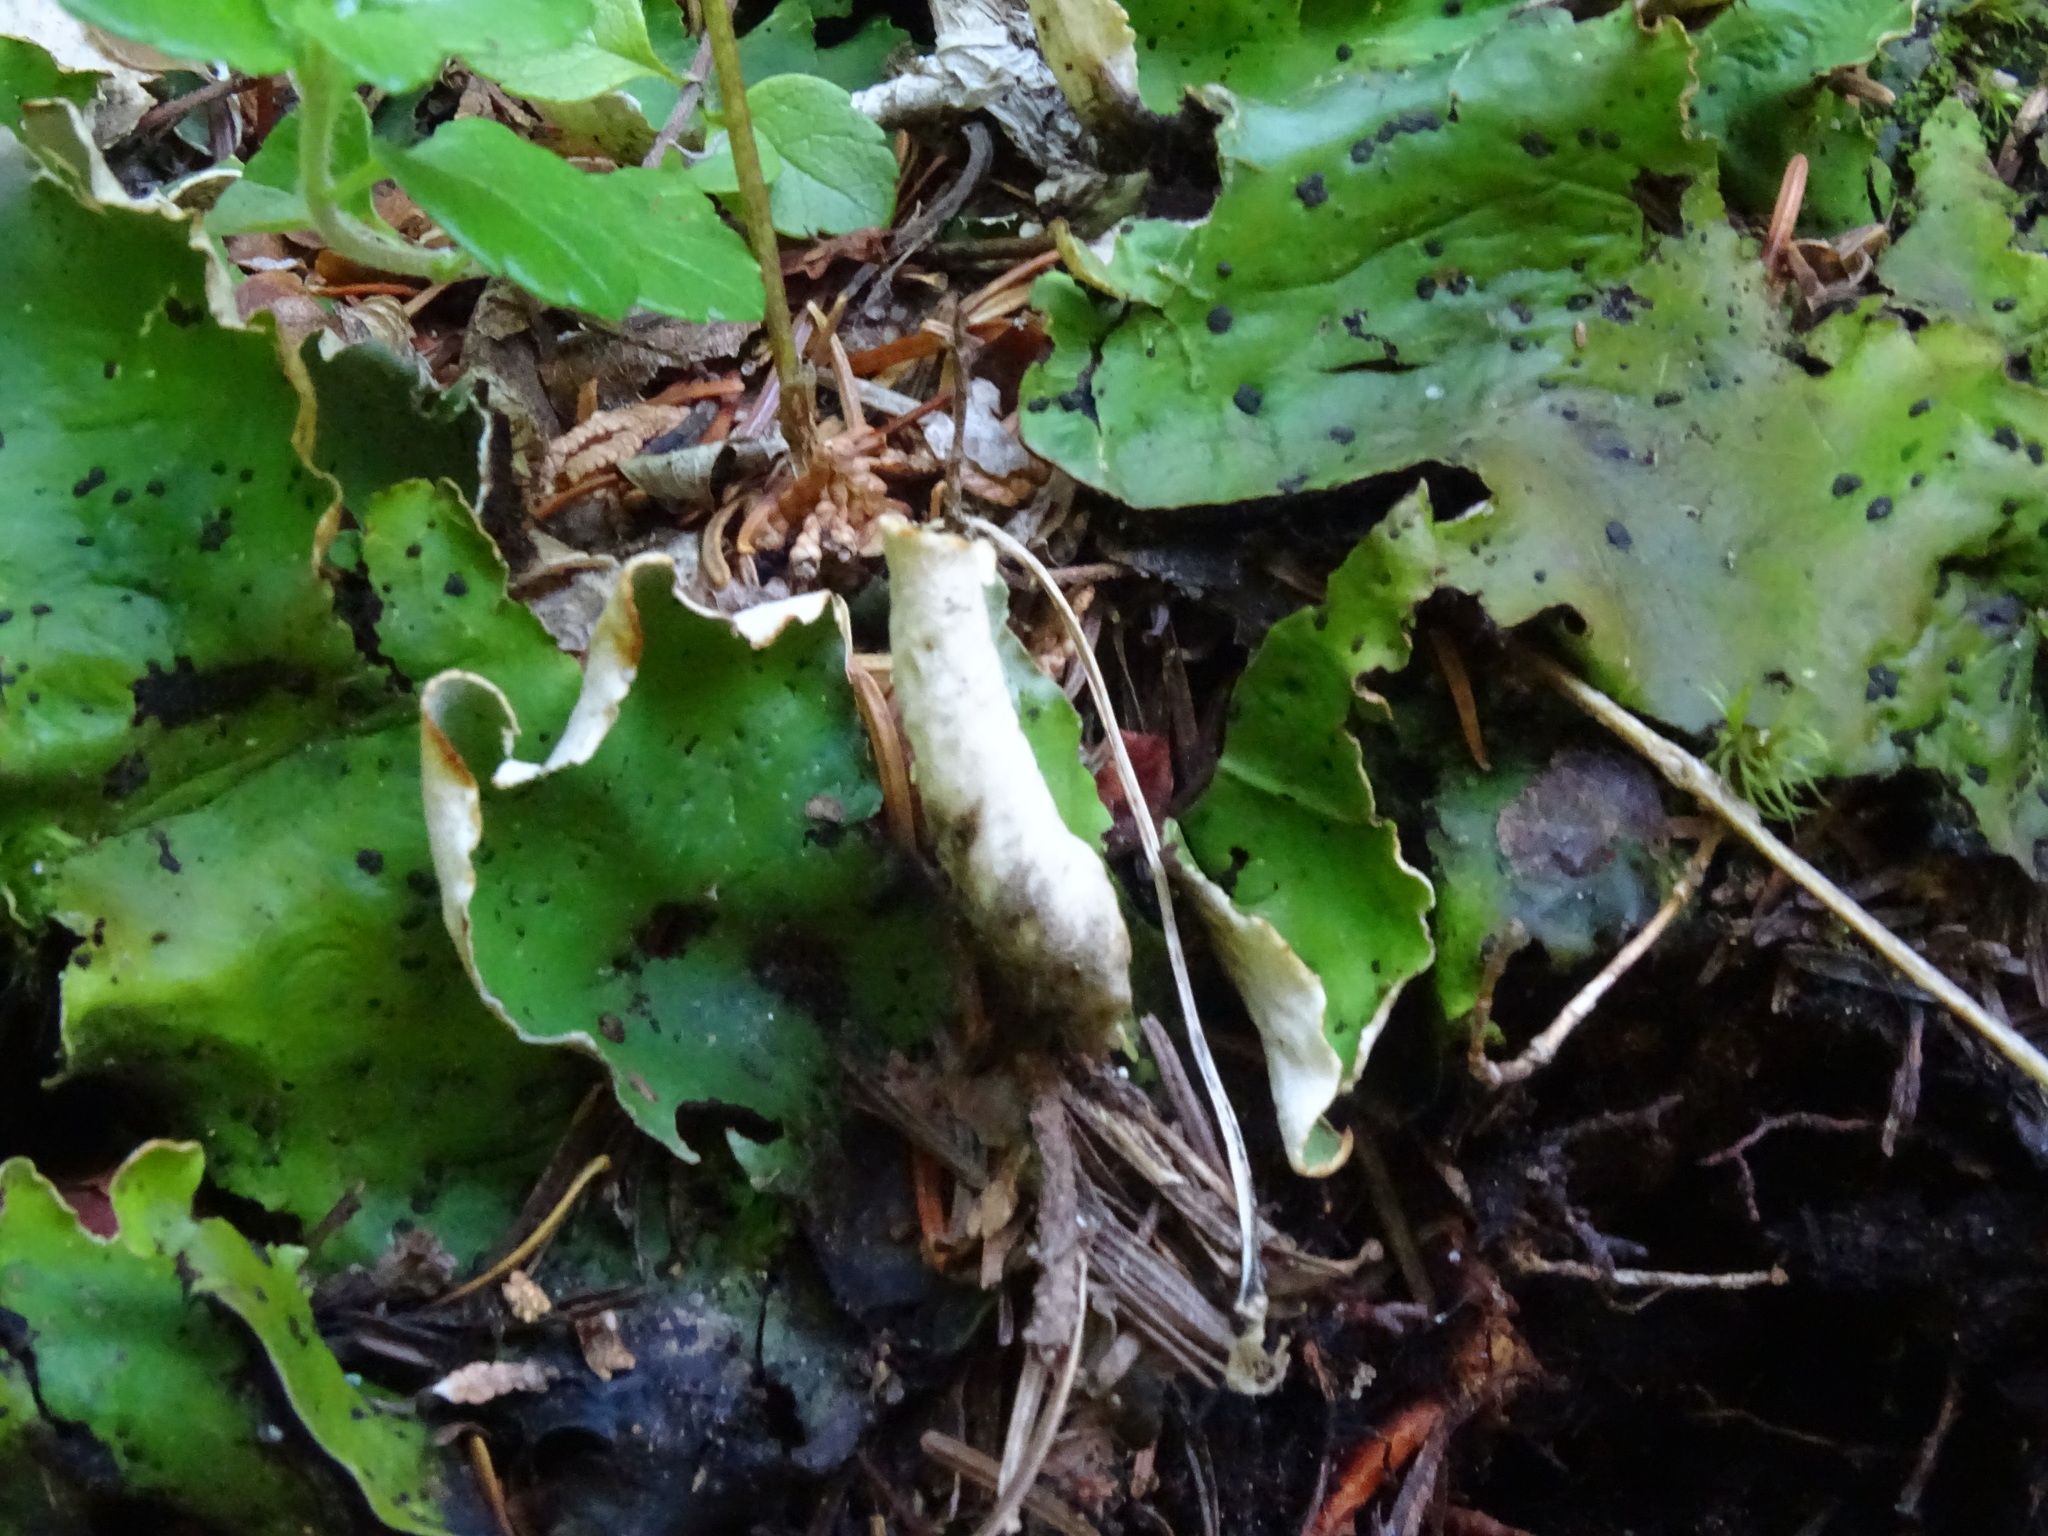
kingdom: Fungi
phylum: Ascomycota
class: Lecanoromycetes
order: Peltigerales
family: Peltigeraceae
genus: Peltigera
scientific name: Peltigera aphthosa
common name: Common freckle pelt lichen
